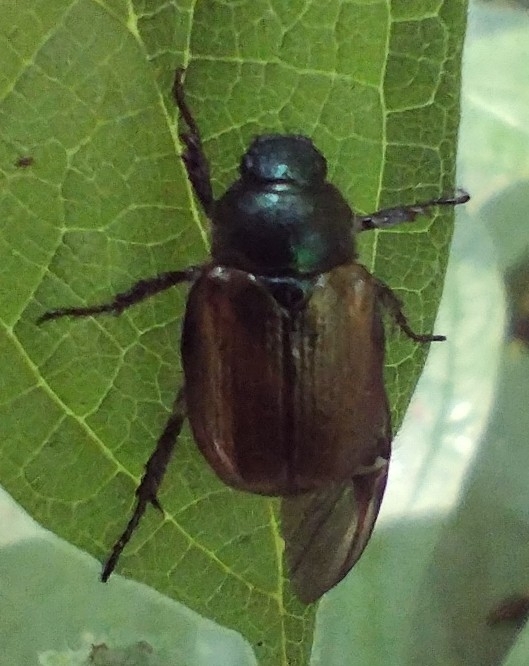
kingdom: Animalia
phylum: Arthropoda
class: Insecta
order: Coleoptera
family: Scarabaeidae
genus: Phyllopertha
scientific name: Phyllopertha horticola
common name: Garden chafer
